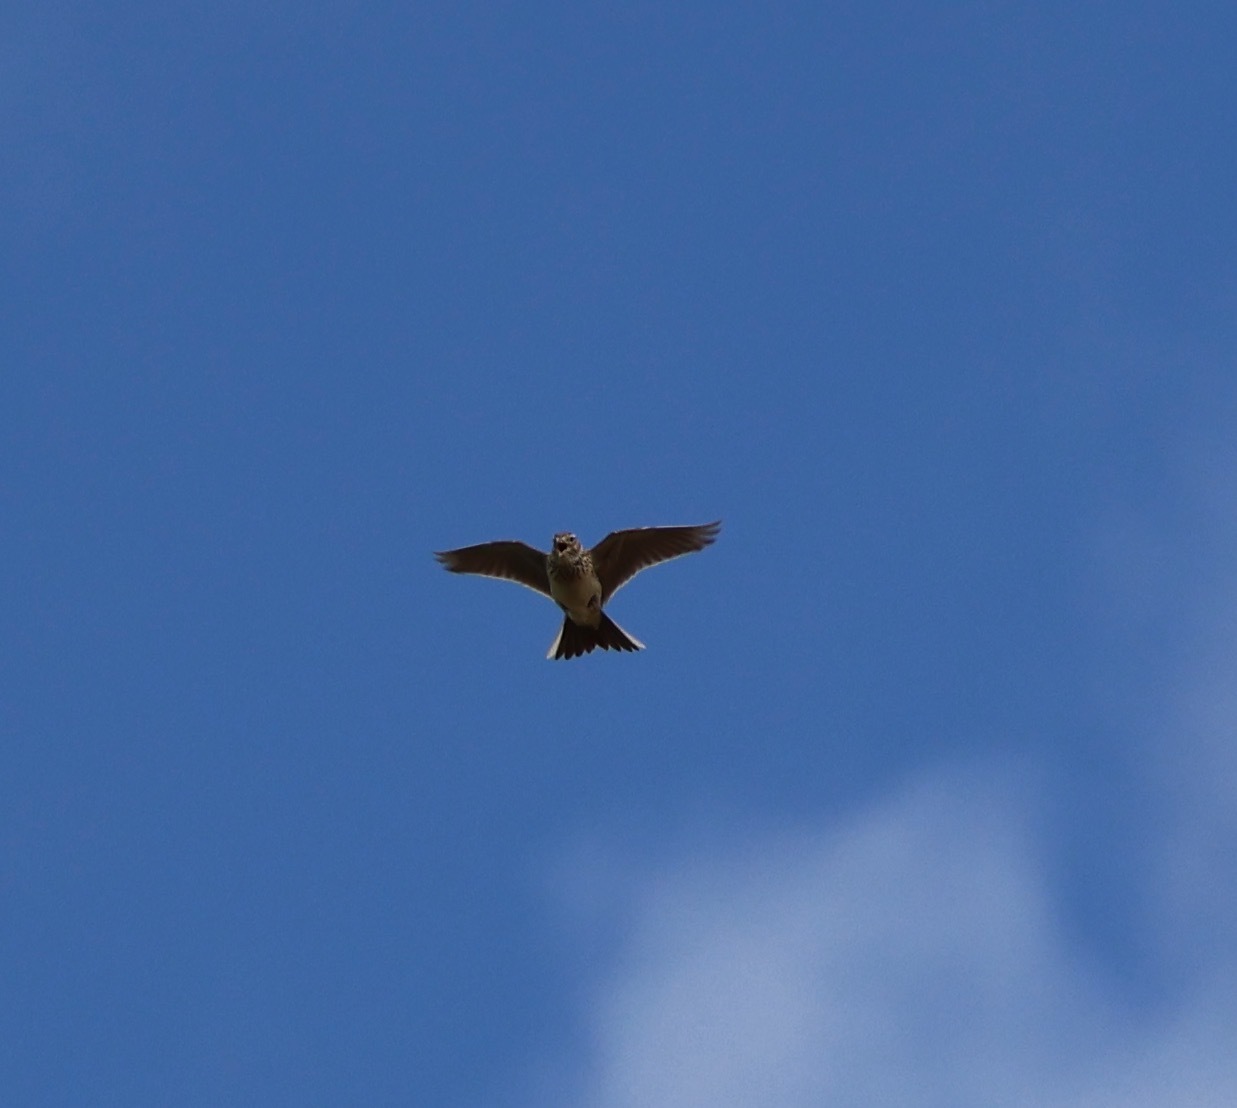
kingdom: Animalia
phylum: Chordata
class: Aves
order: Passeriformes
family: Alaudidae
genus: Alauda
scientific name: Alauda arvensis
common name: Eurasian skylark
